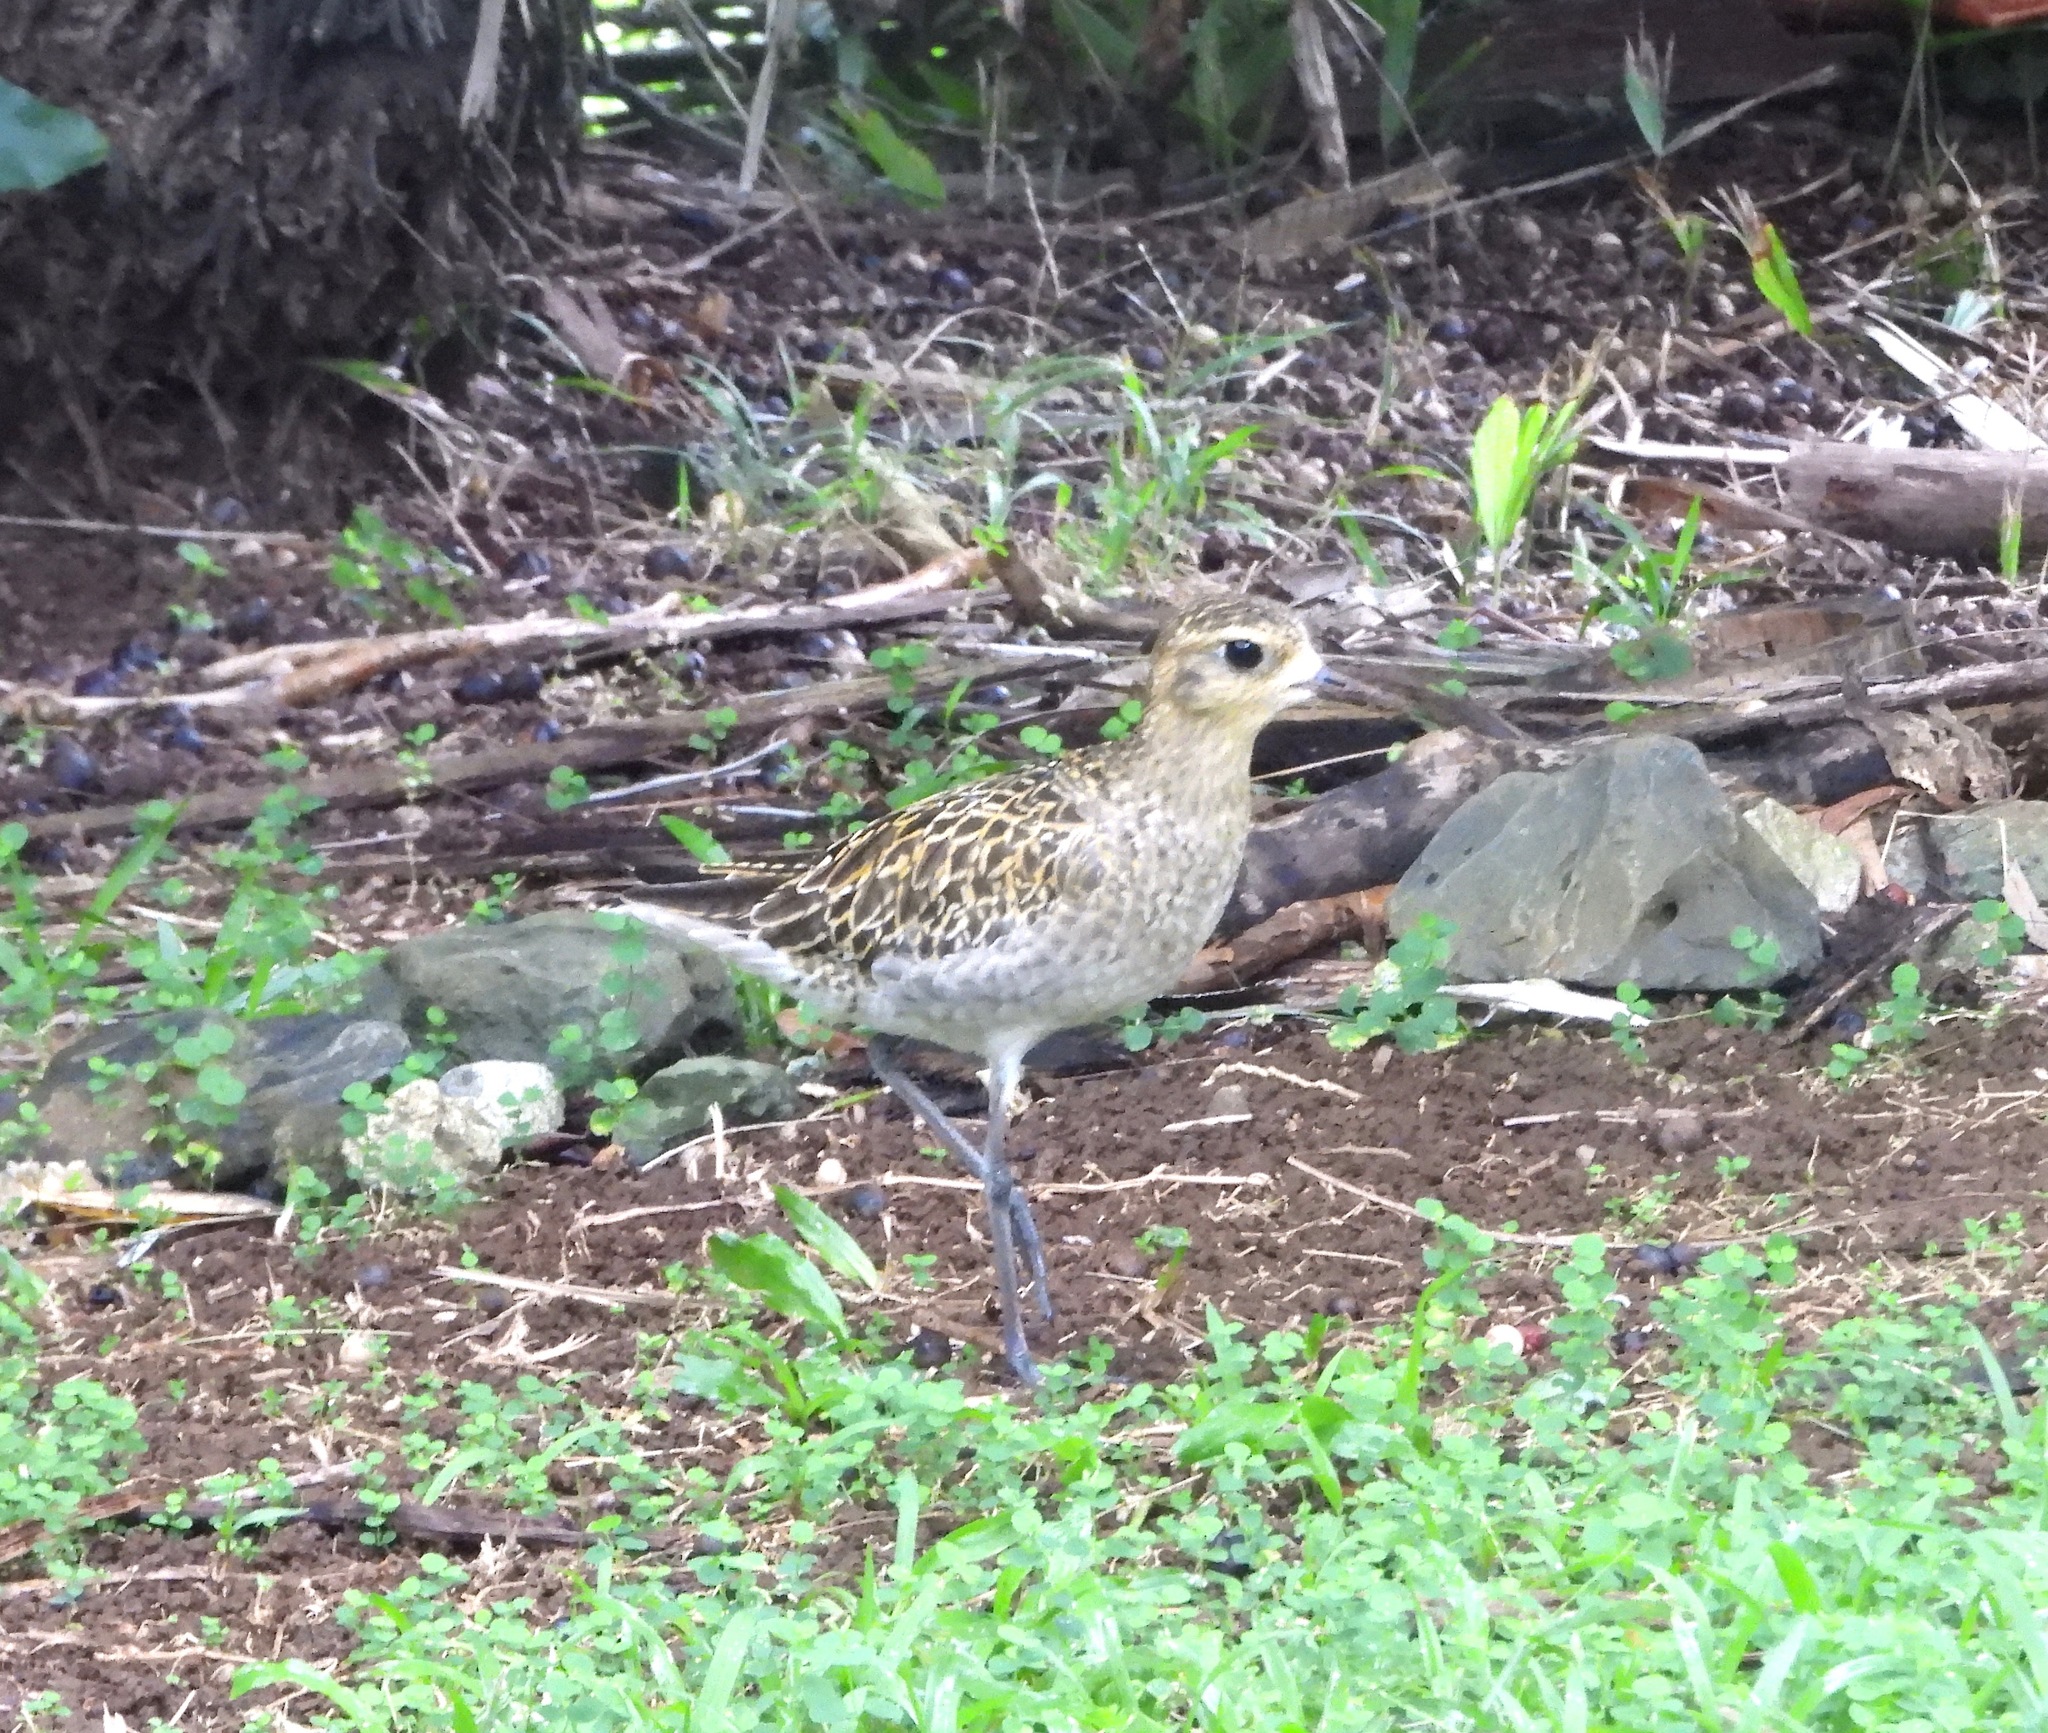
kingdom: Animalia
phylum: Chordata
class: Aves
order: Charadriiformes
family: Charadriidae
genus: Pluvialis
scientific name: Pluvialis fulva
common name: Pacific golden plover
